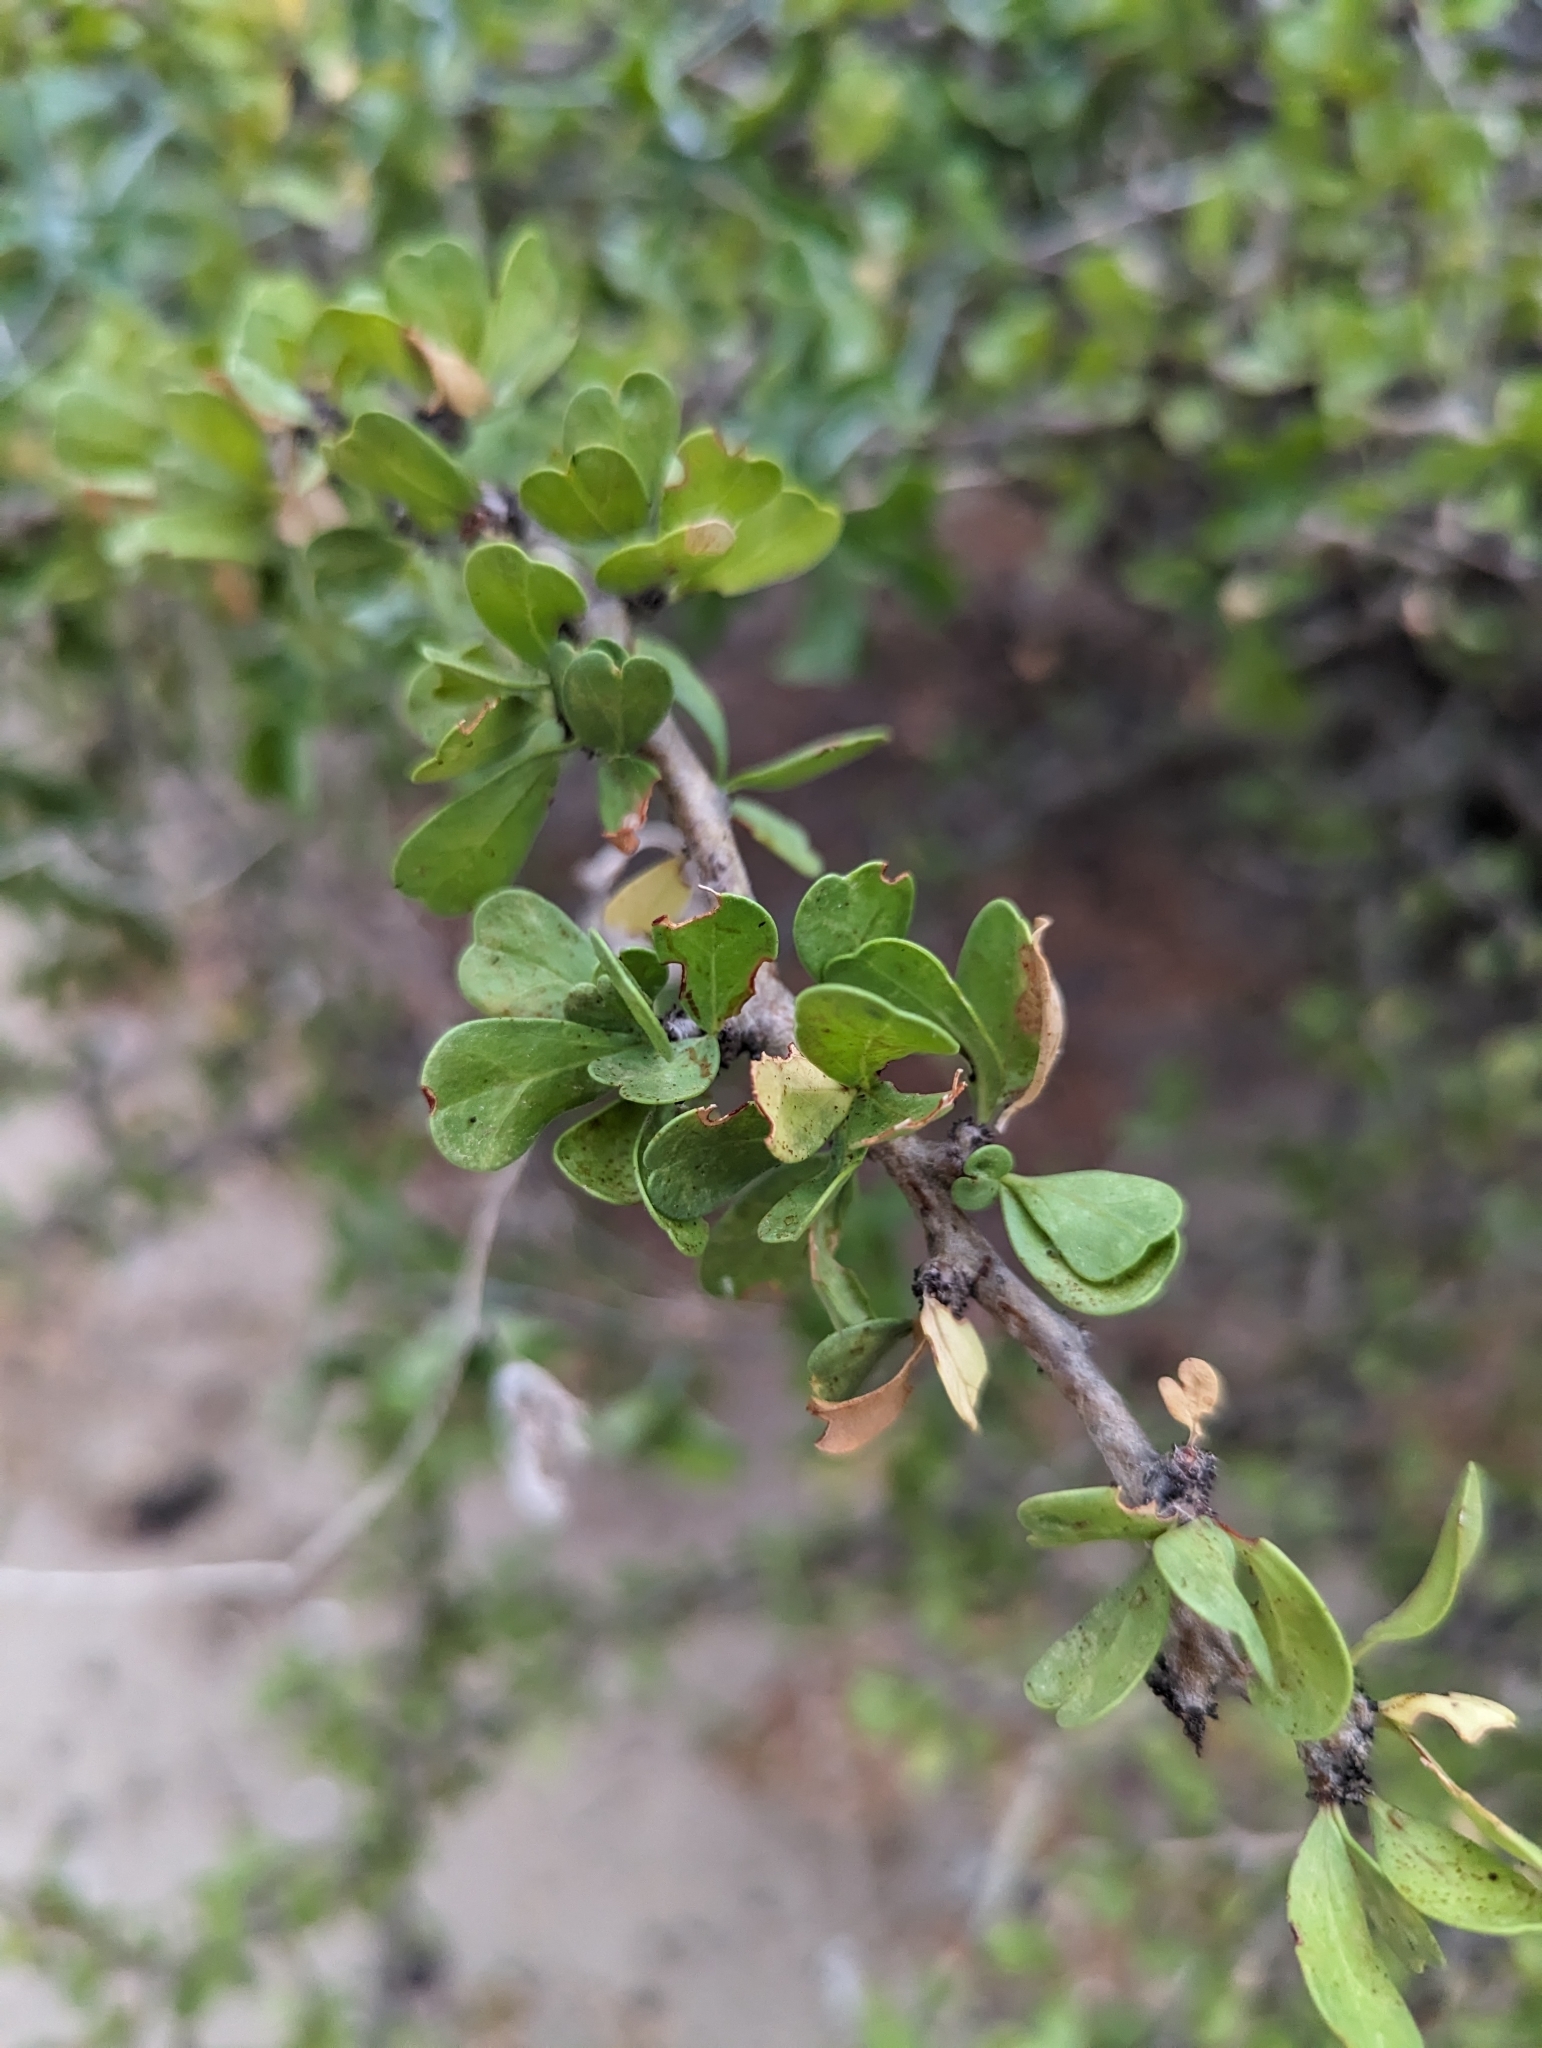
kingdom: Plantae
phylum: Tracheophyta
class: Magnoliopsida
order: Malpighiales
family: Euphorbiaceae
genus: Jatropha
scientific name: Jatropha cuneata
